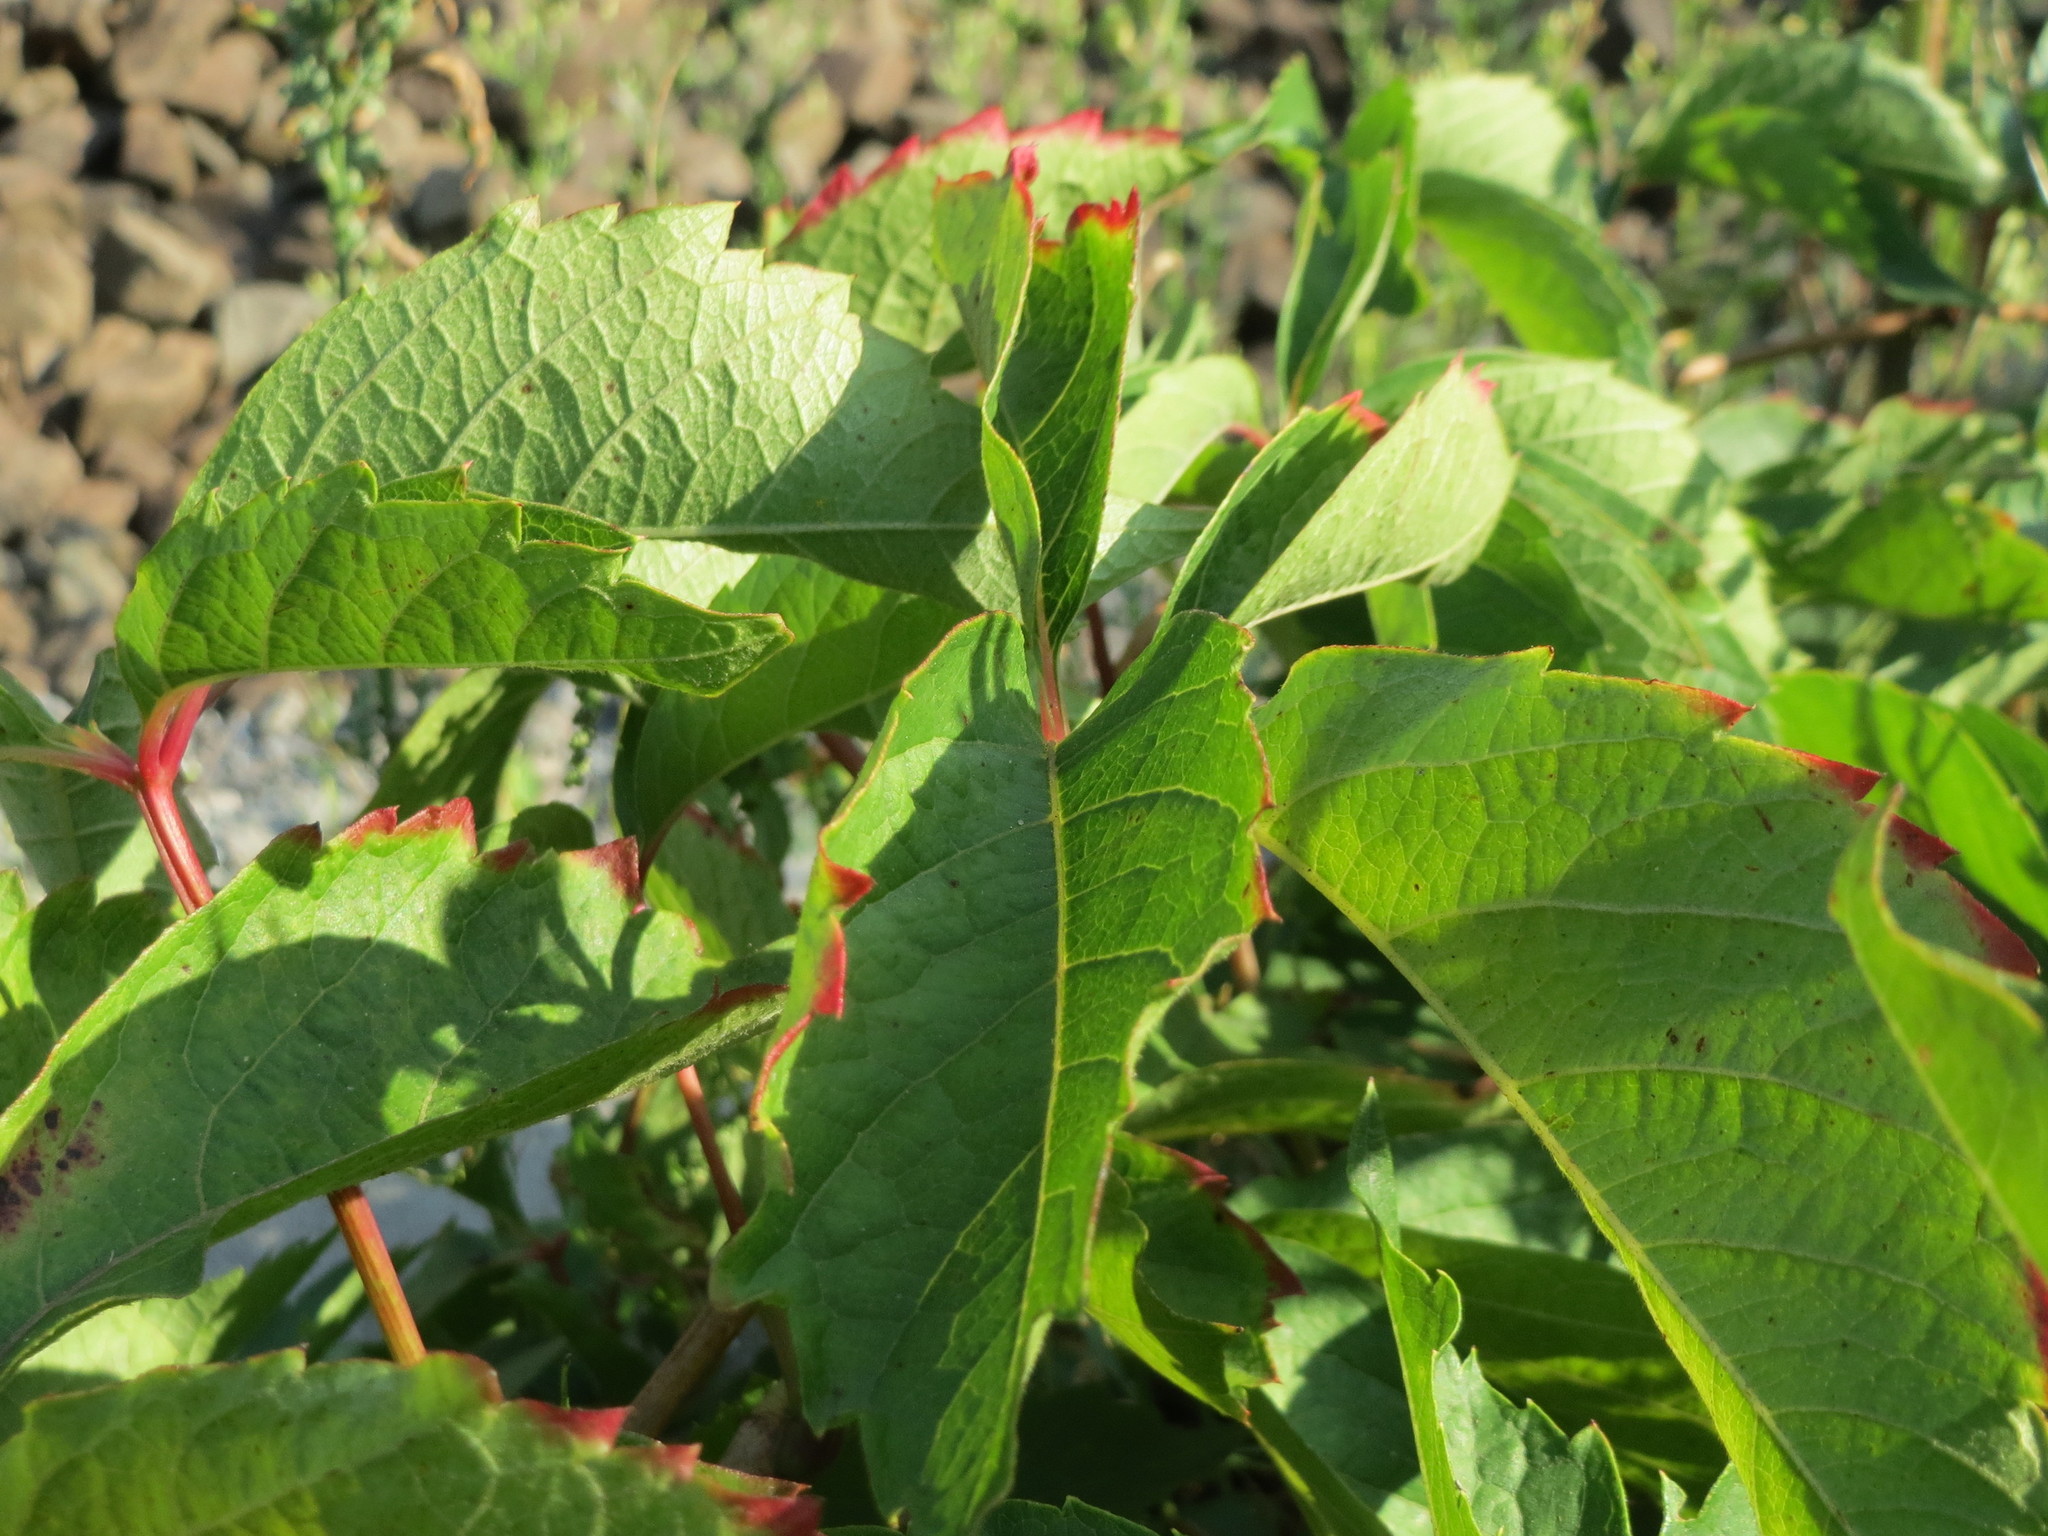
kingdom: Plantae
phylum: Tracheophyta
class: Magnoliopsida
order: Vitales
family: Vitaceae
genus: Parthenocissus
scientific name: Parthenocissus quinquefolia
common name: Virginia-creeper
